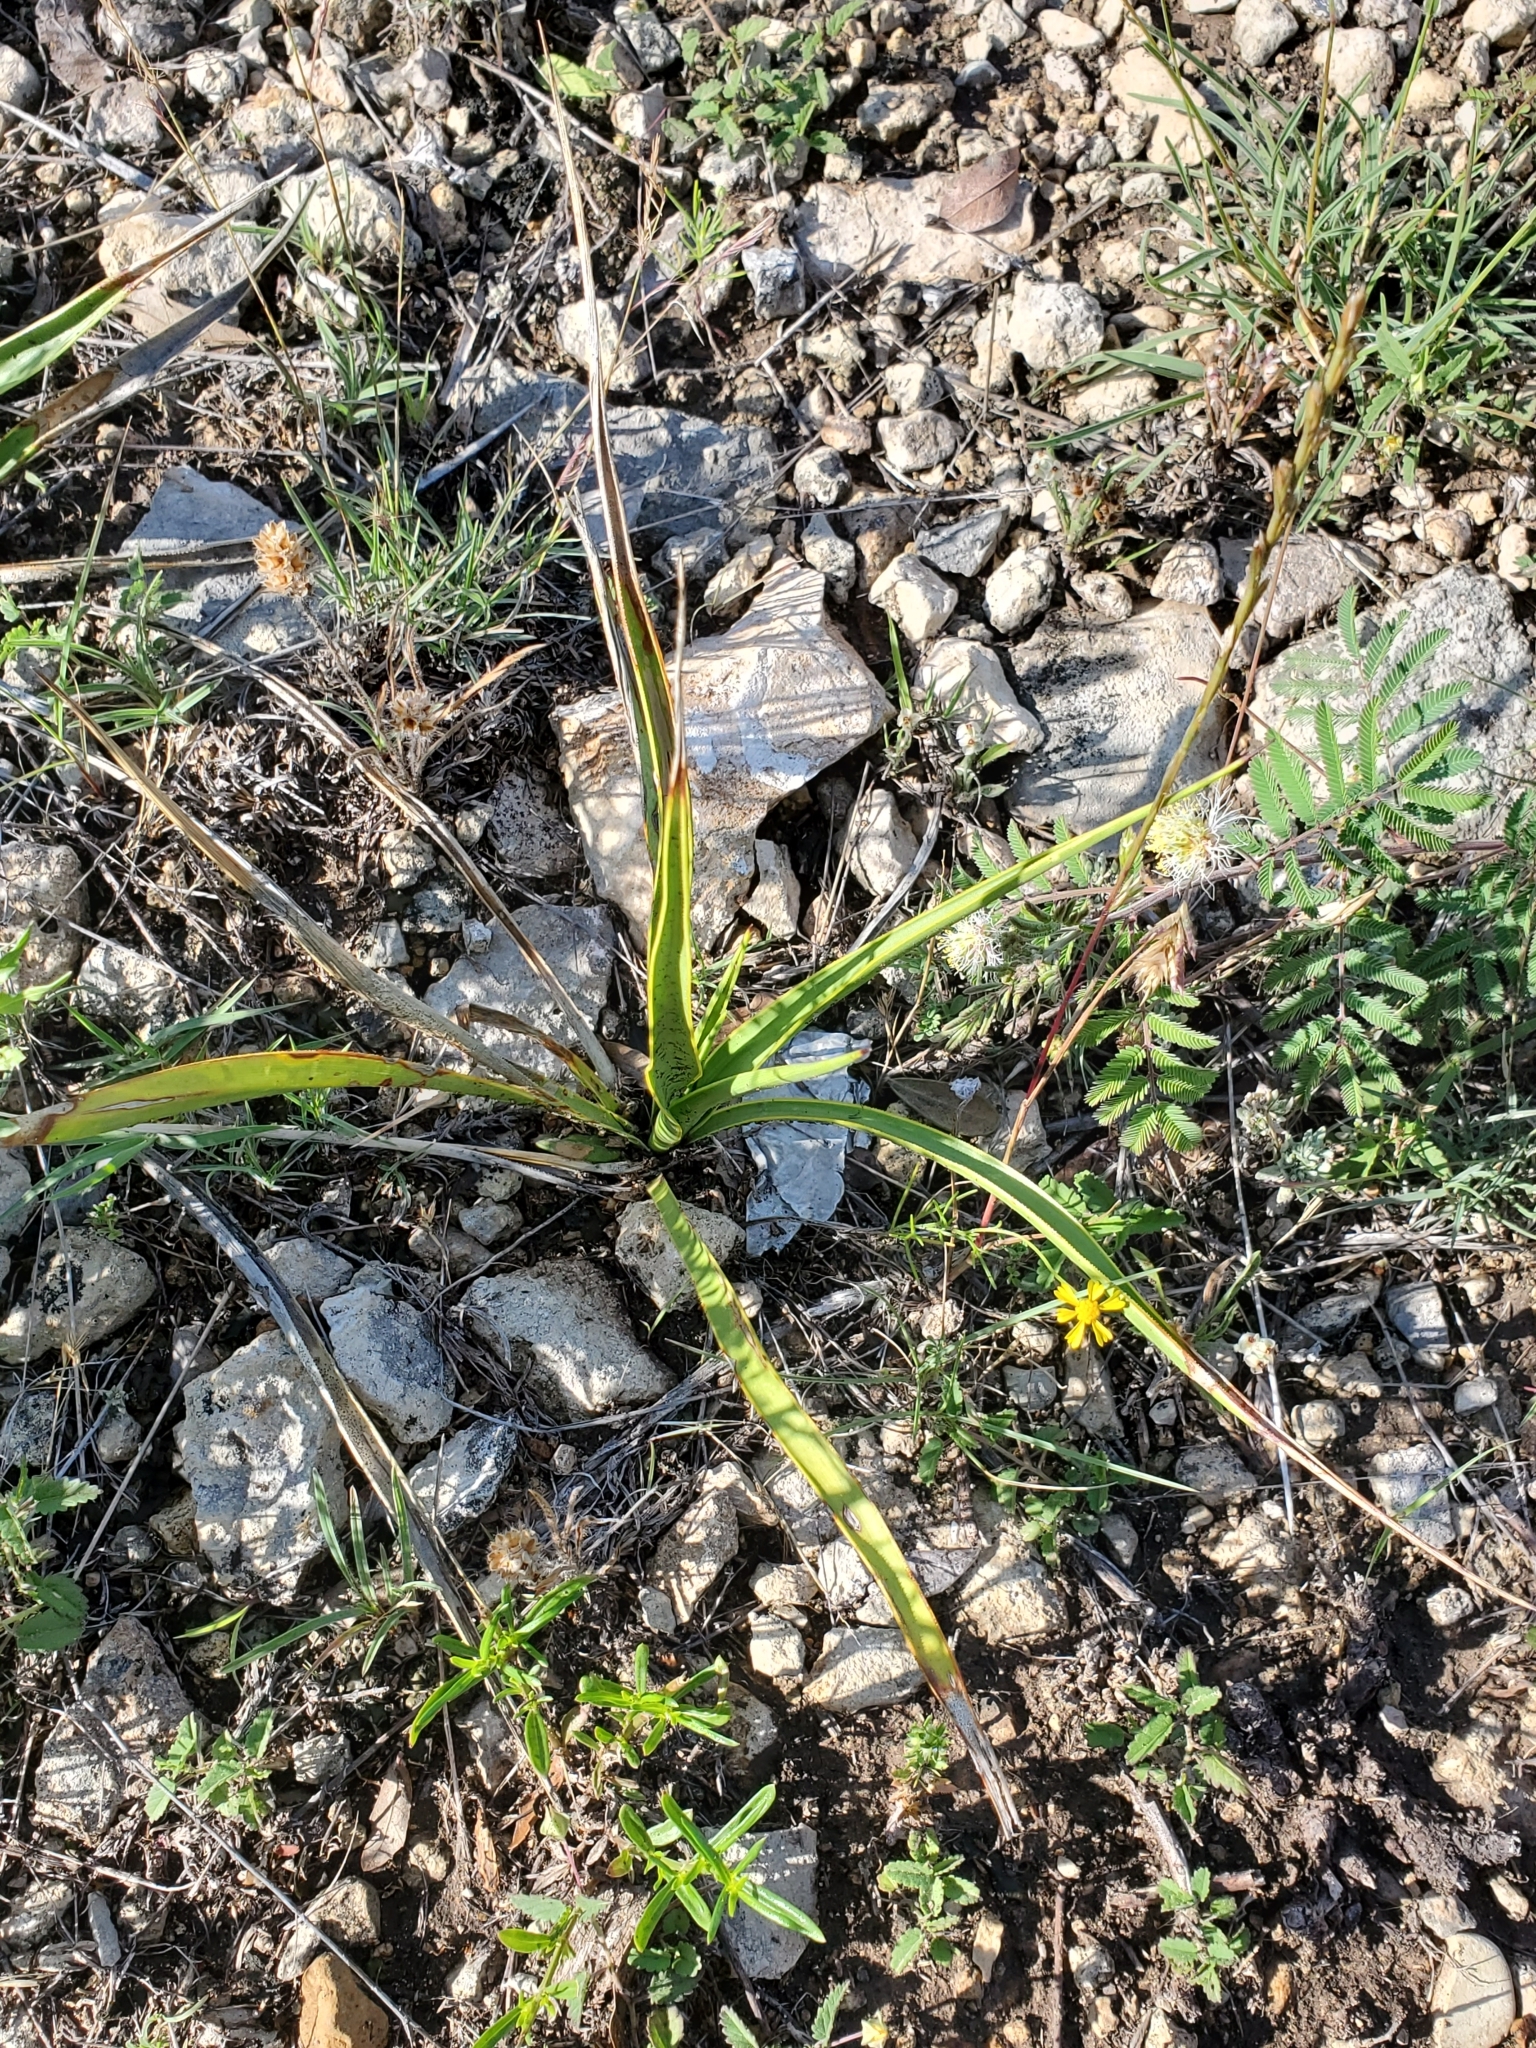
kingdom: Plantae
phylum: Tracheophyta
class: Liliopsida
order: Asparagales
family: Asparagaceae
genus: Yucca
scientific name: Yucca rupicola
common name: Twisted-leaf spanish-dagger
